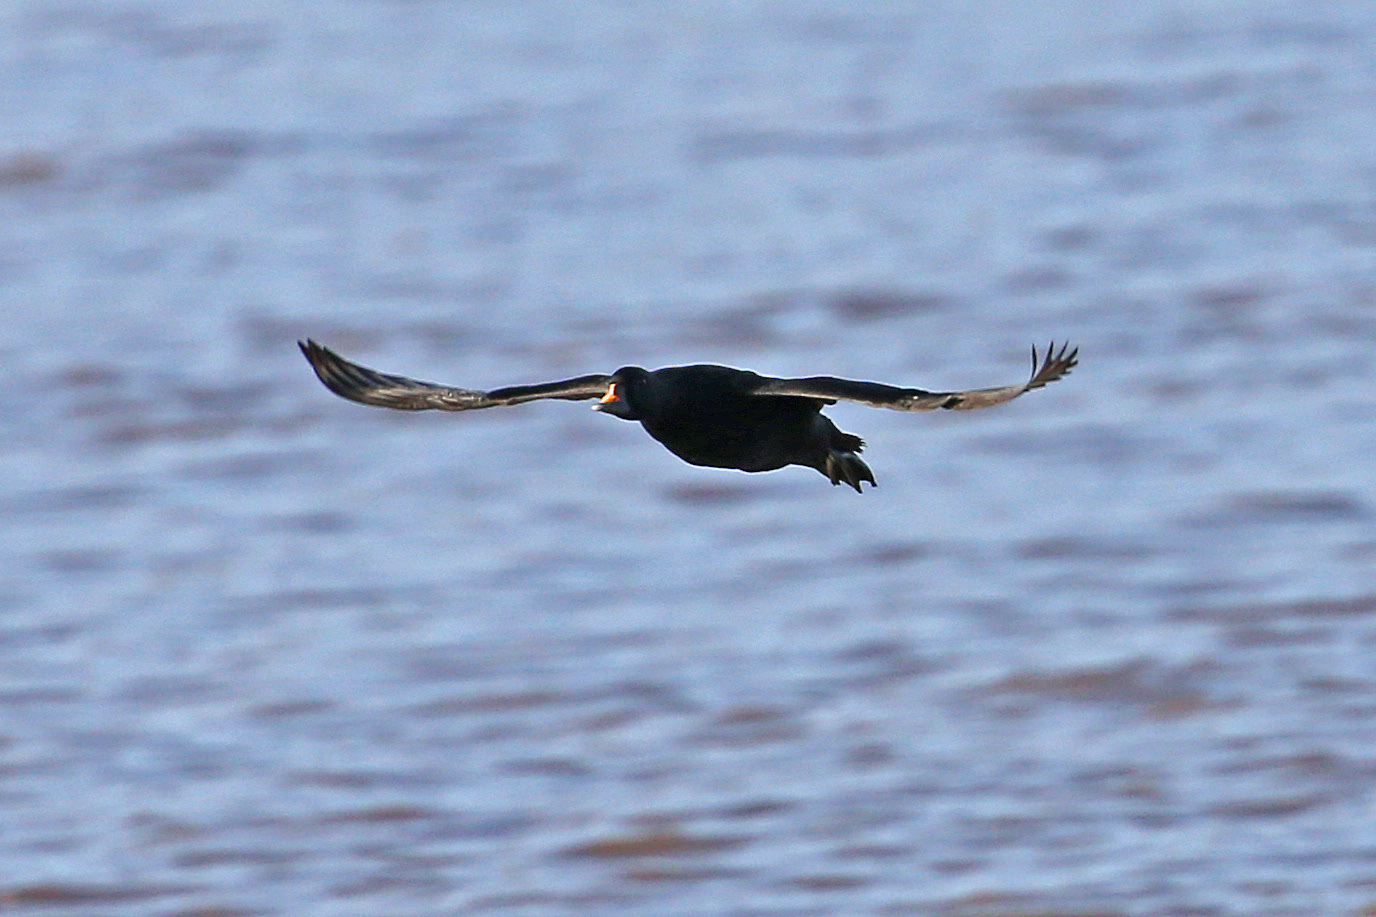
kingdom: Animalia
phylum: Chordata
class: Aves
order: Anseriformes
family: Anatidae
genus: Melanitta
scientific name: Melanitta nigra
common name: Common scoter
